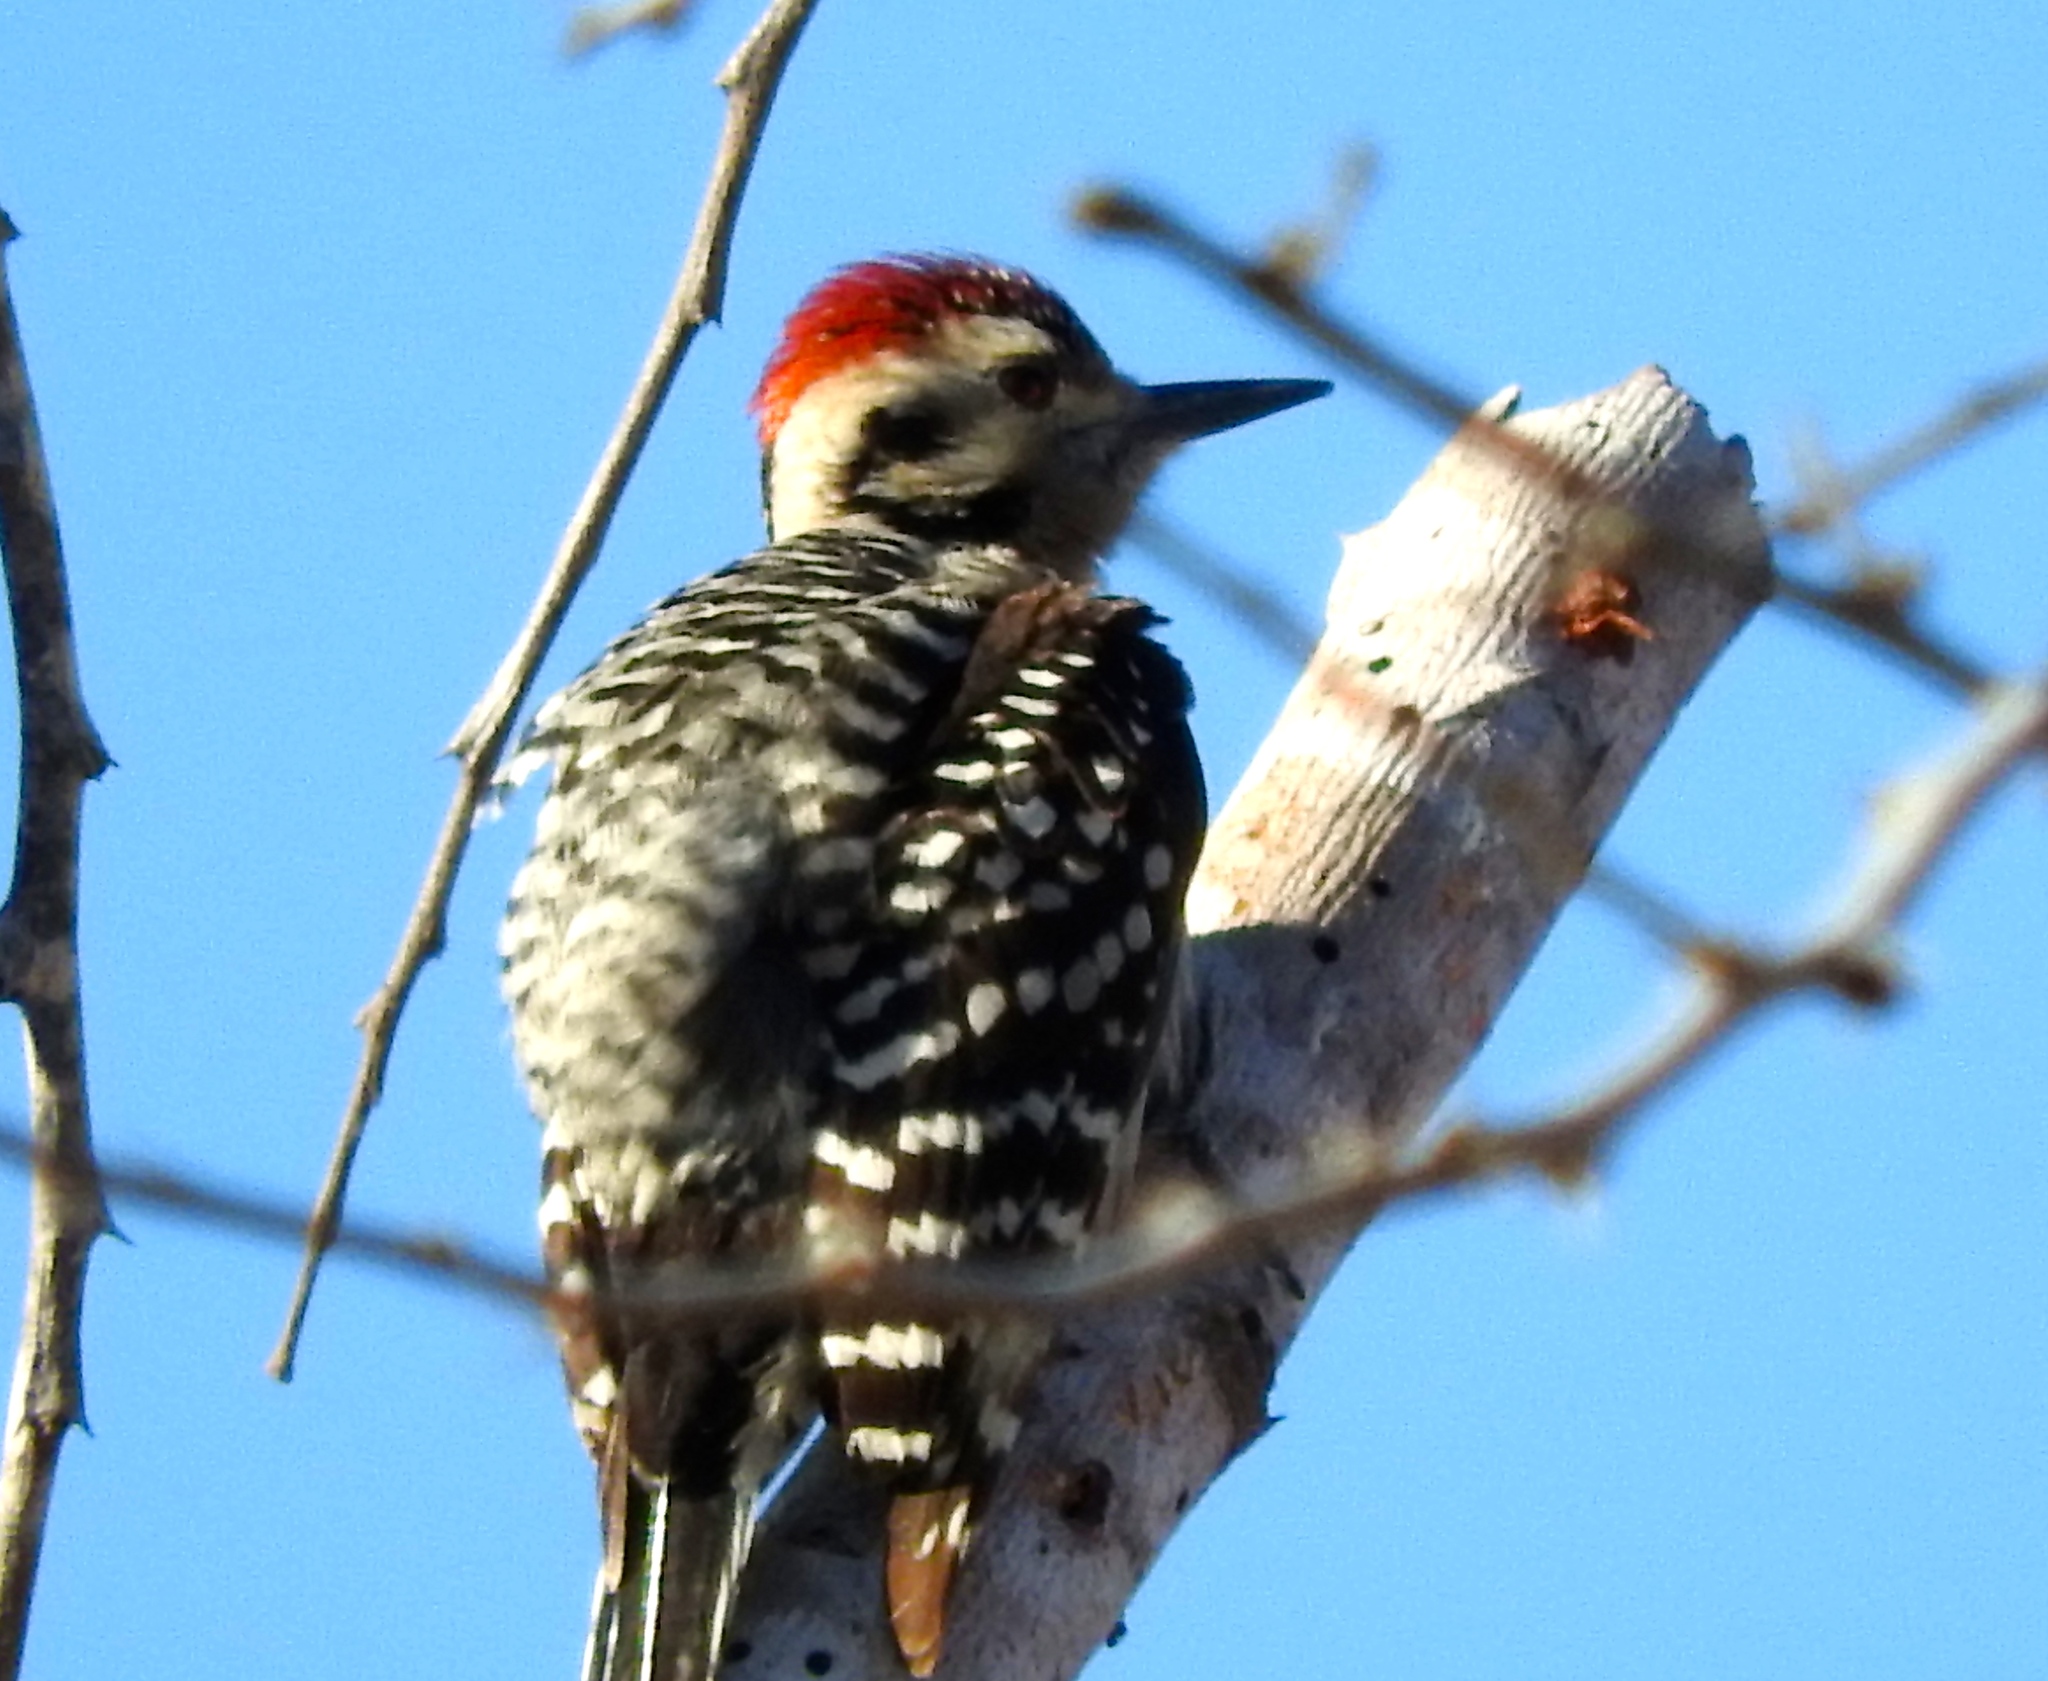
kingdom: Animalia
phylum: Chordata
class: Aves
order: Piciformes
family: Picidae
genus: Dryobates
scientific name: Dryobates scalaris
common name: Ladder-backed woodpecker
